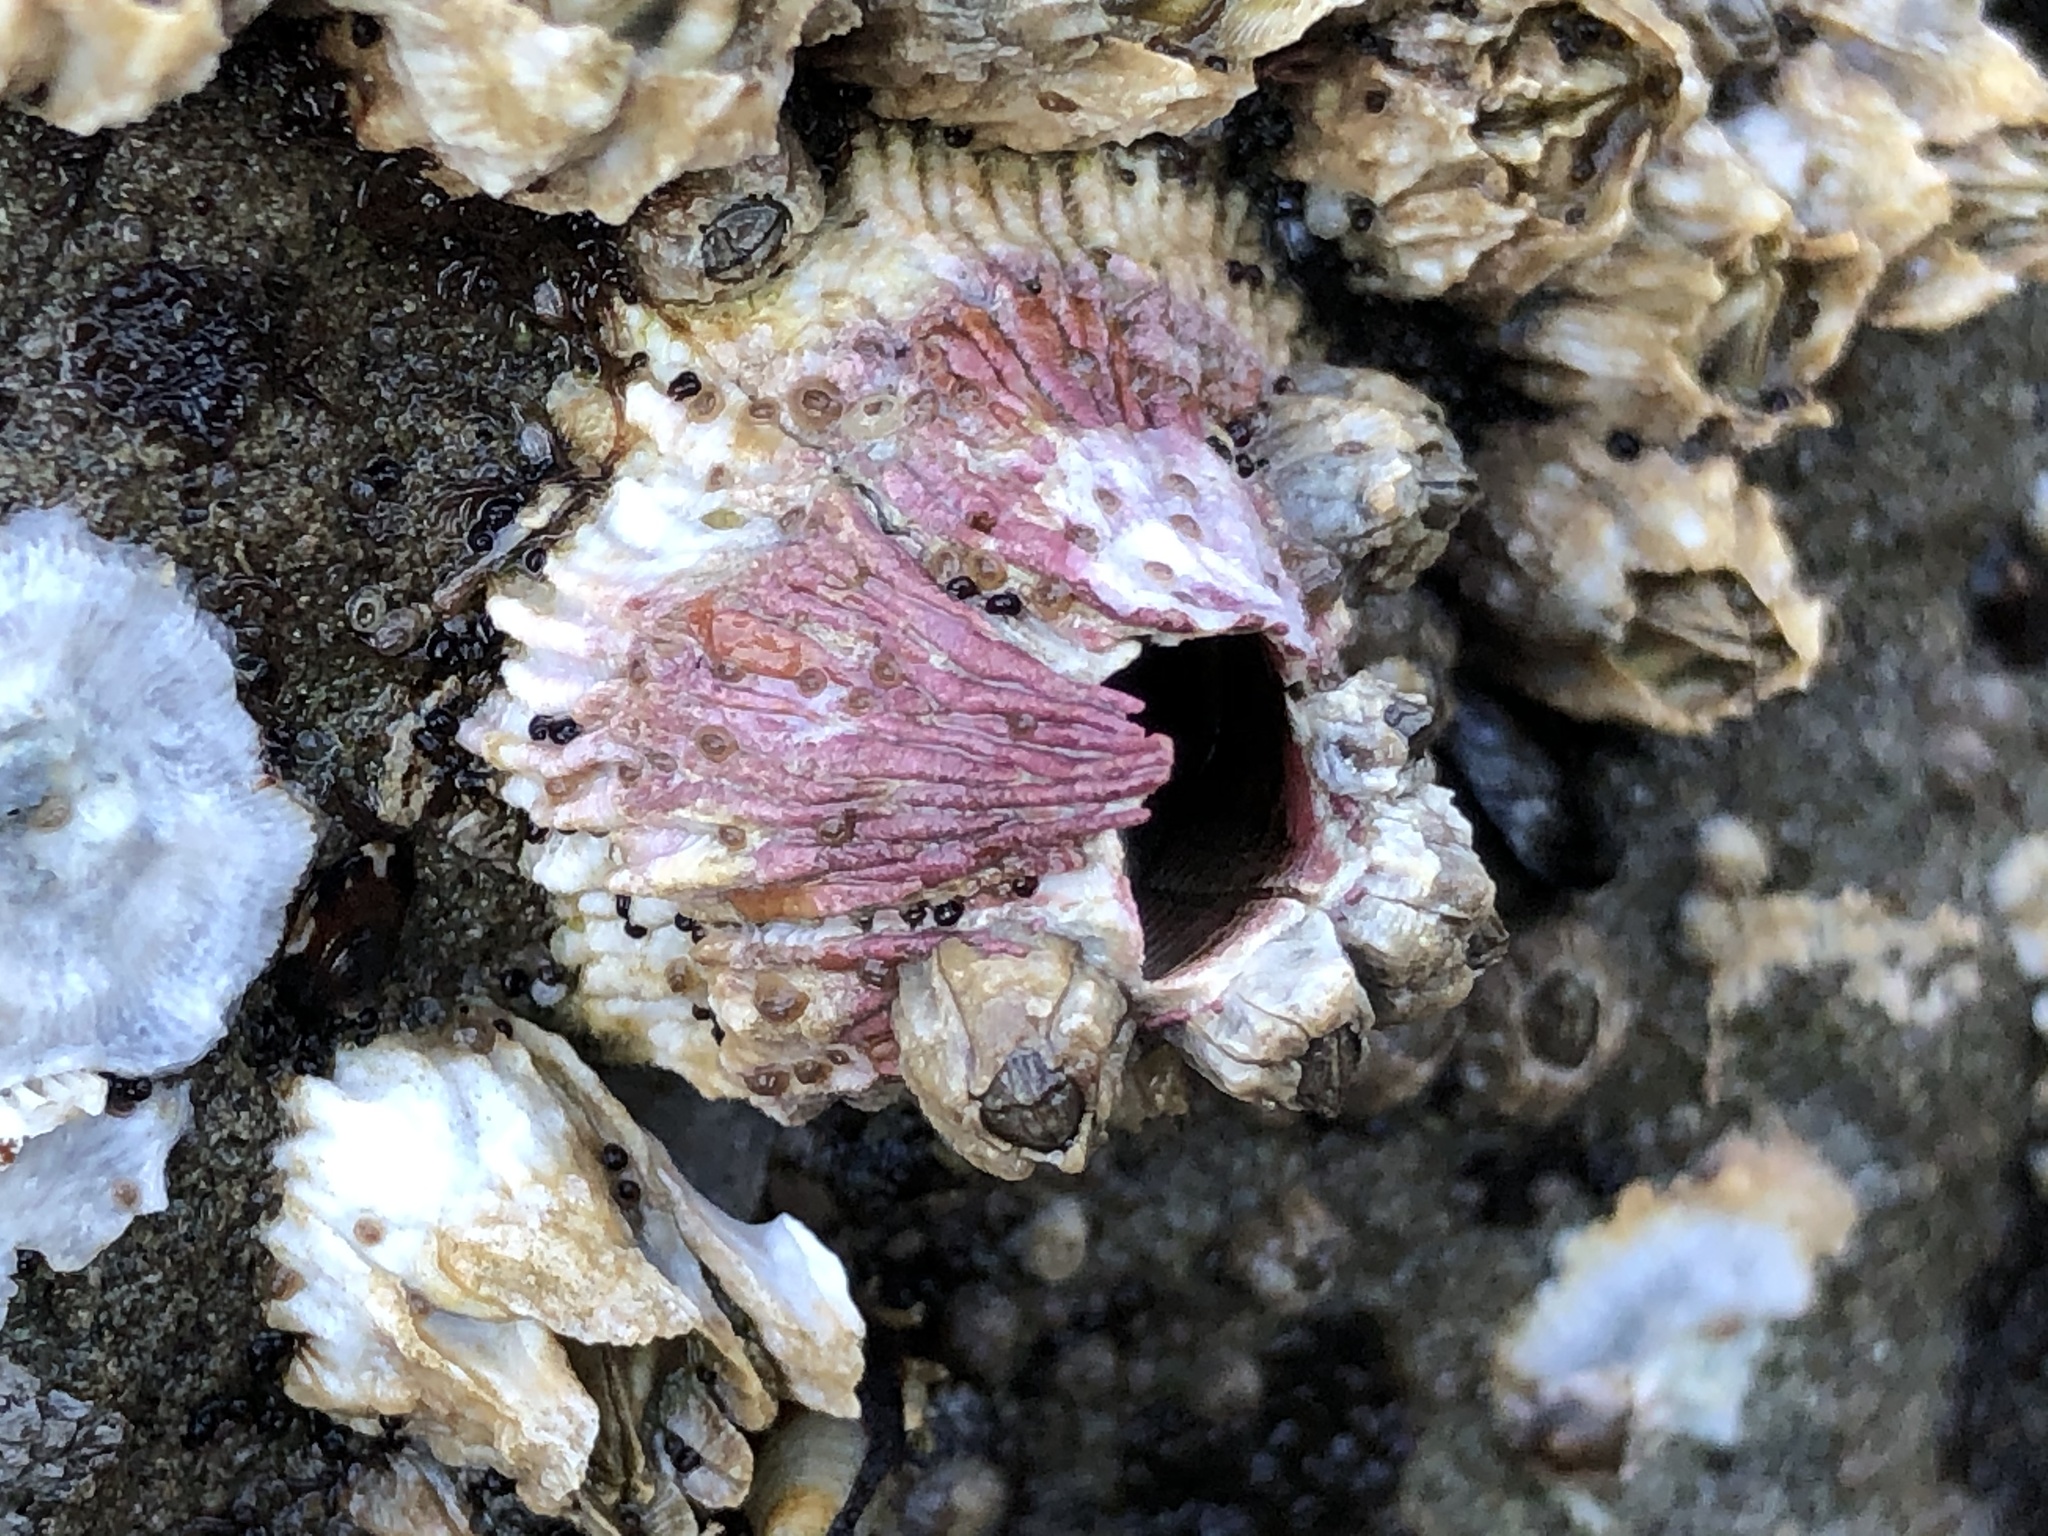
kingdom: Animalia
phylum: Arthropoda
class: Maxillopoda
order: Sessilia
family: Tetraclitidae
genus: Tetraclita
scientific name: Tetraclita rubescens
